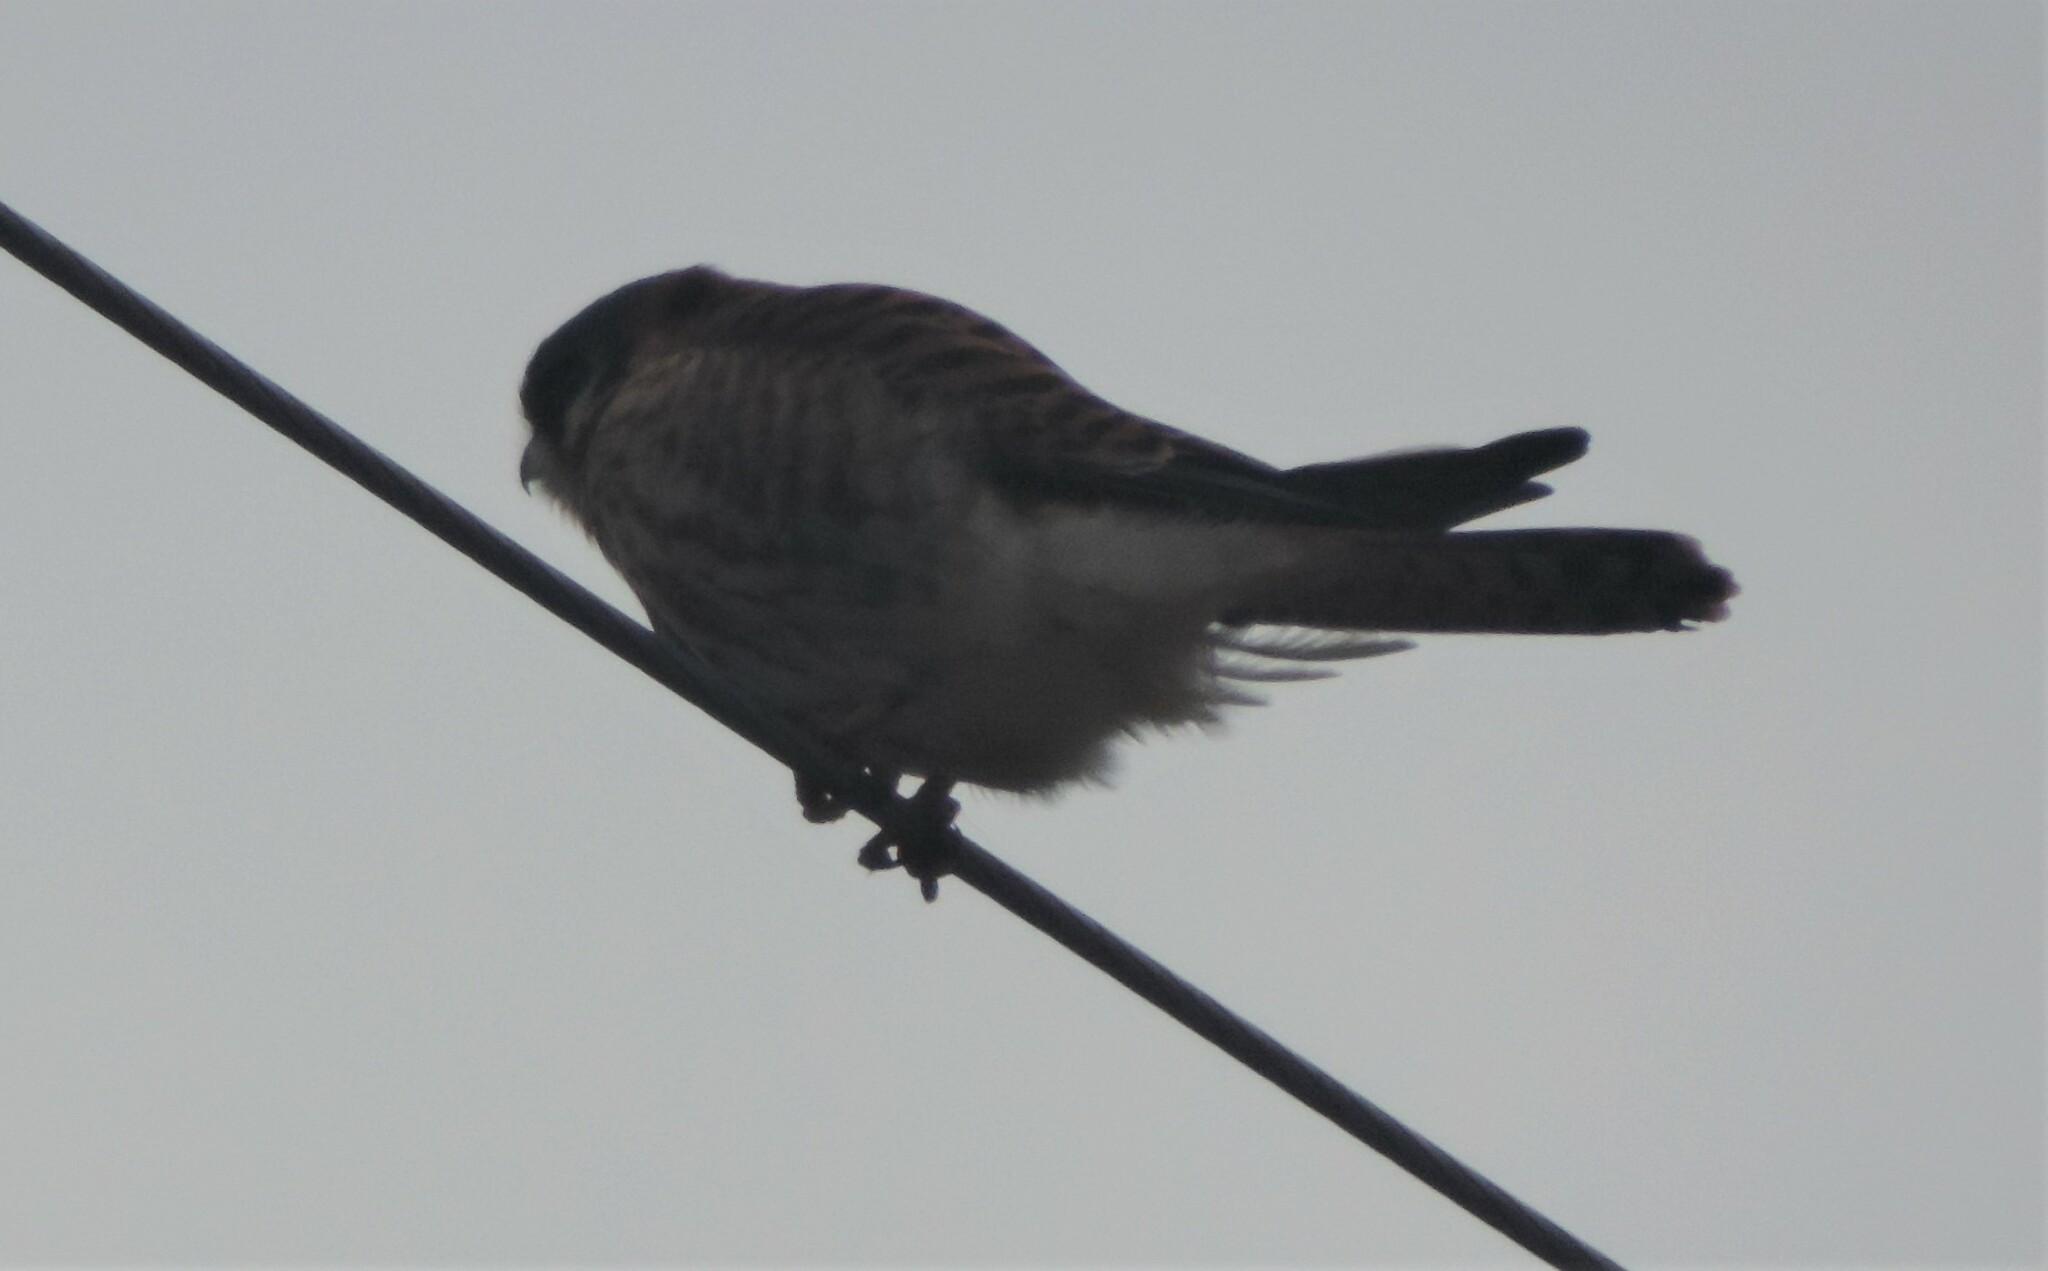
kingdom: Animalia
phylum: Chordata
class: Aves
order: Falconiformes
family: Falconidae
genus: Falco
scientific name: Falco sparverius
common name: American kestrel
